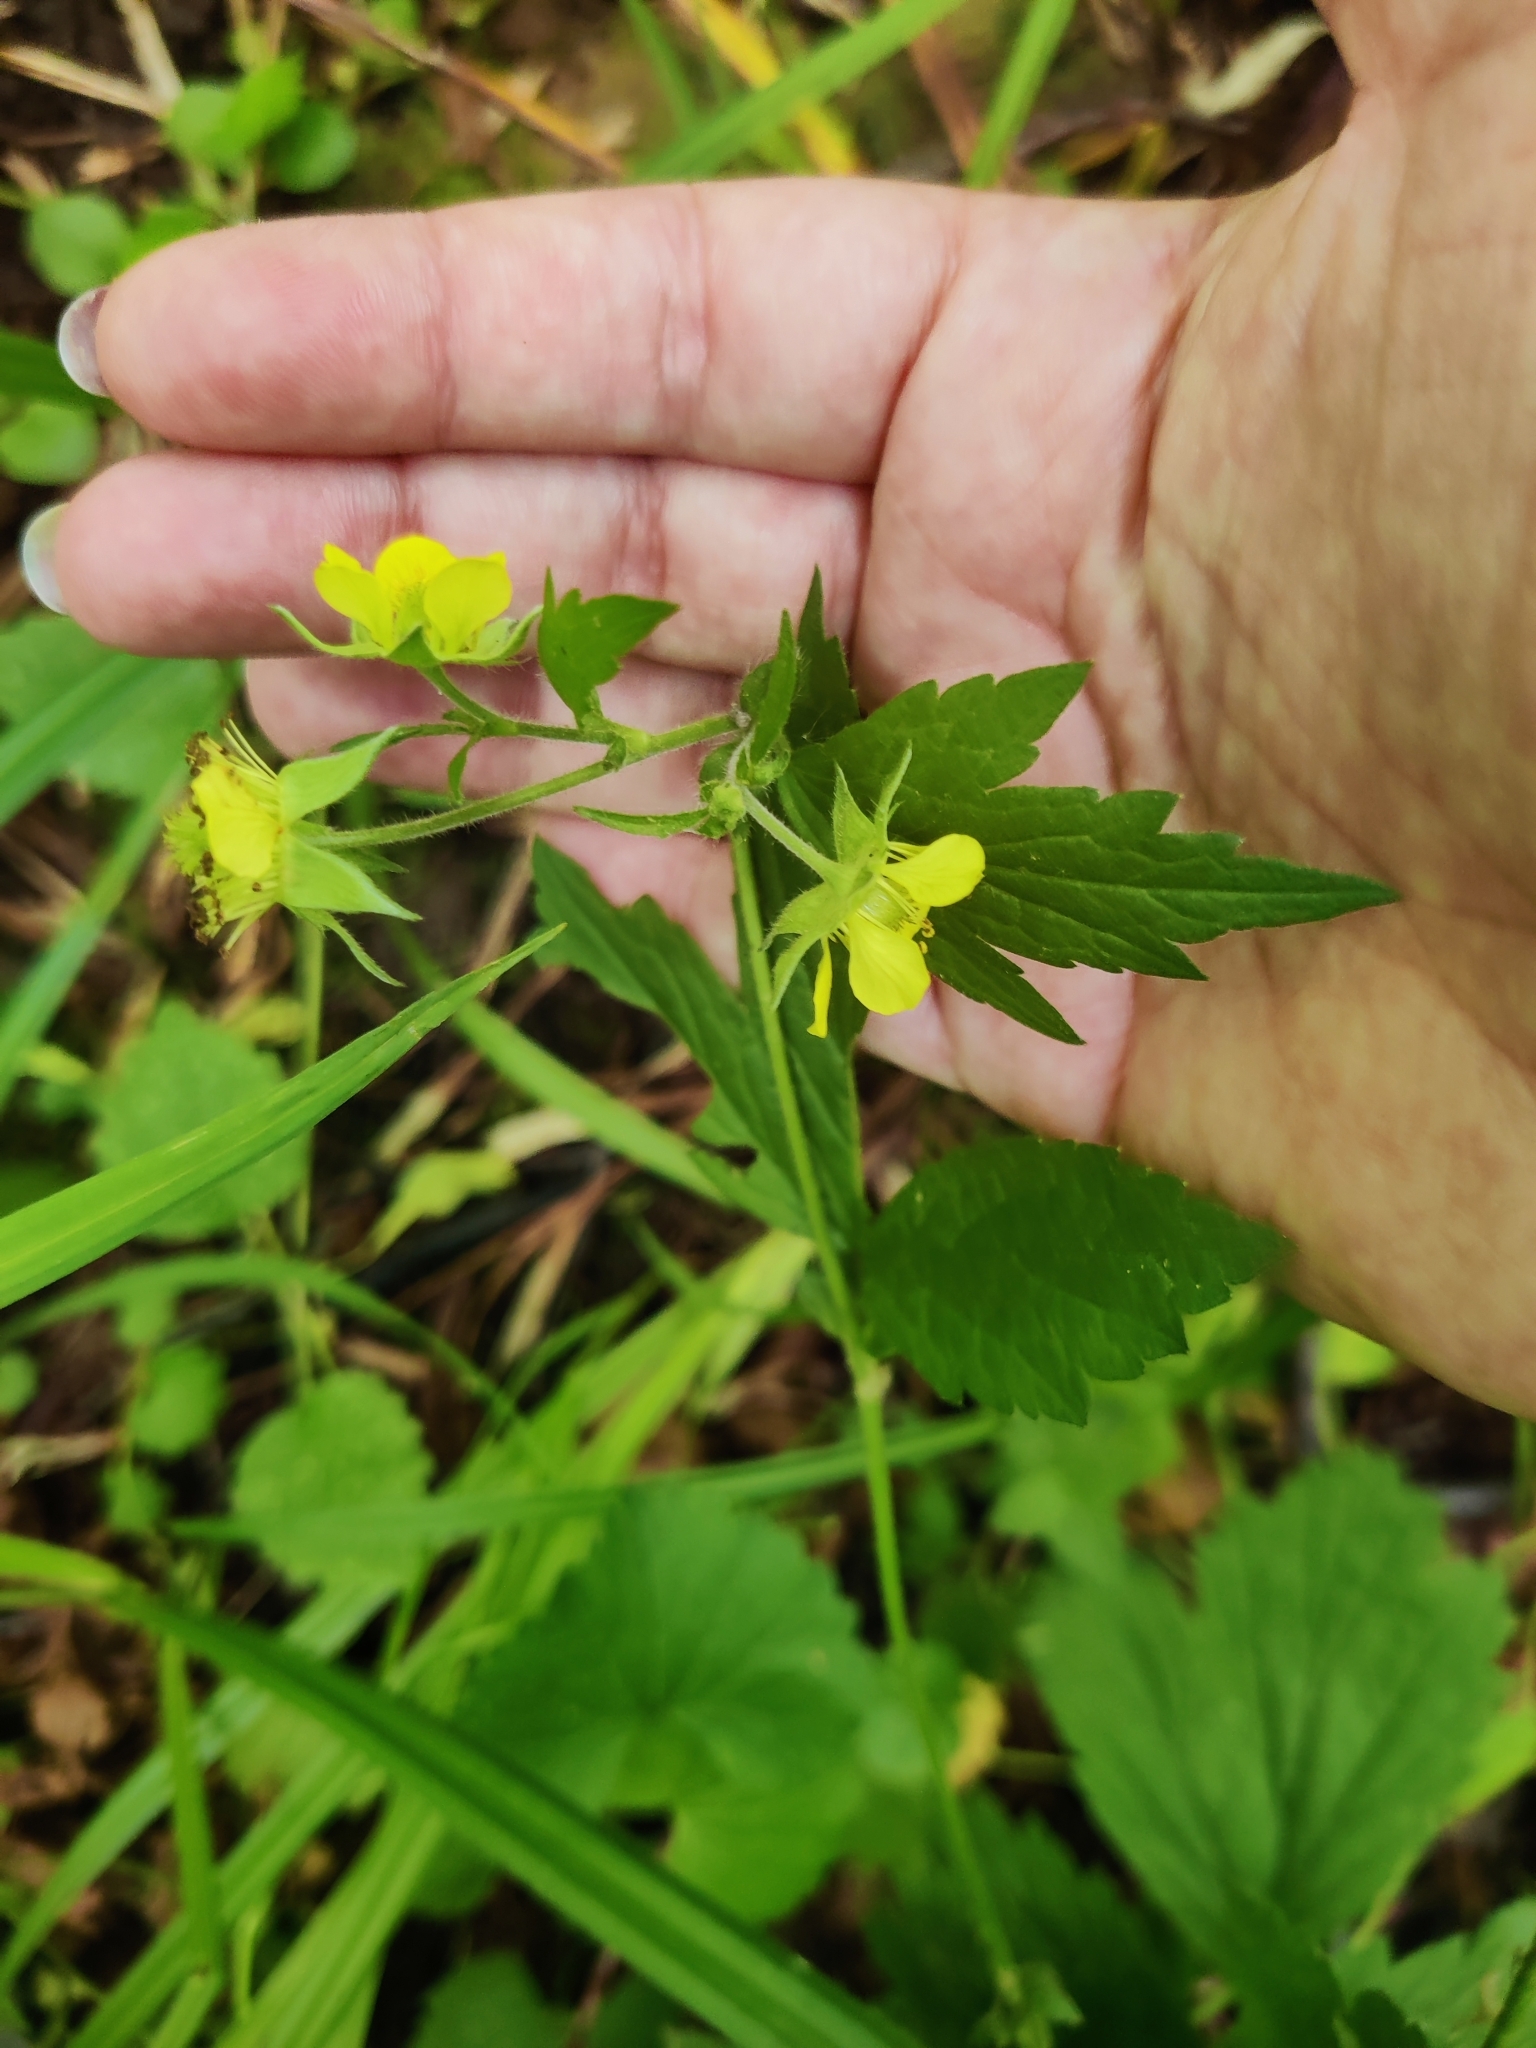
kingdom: Plantae
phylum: Tracheophyta
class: Magnoliopsida
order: Rosales
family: Rosaceae
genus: Geum
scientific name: Geum urbanum
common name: Wood avens
